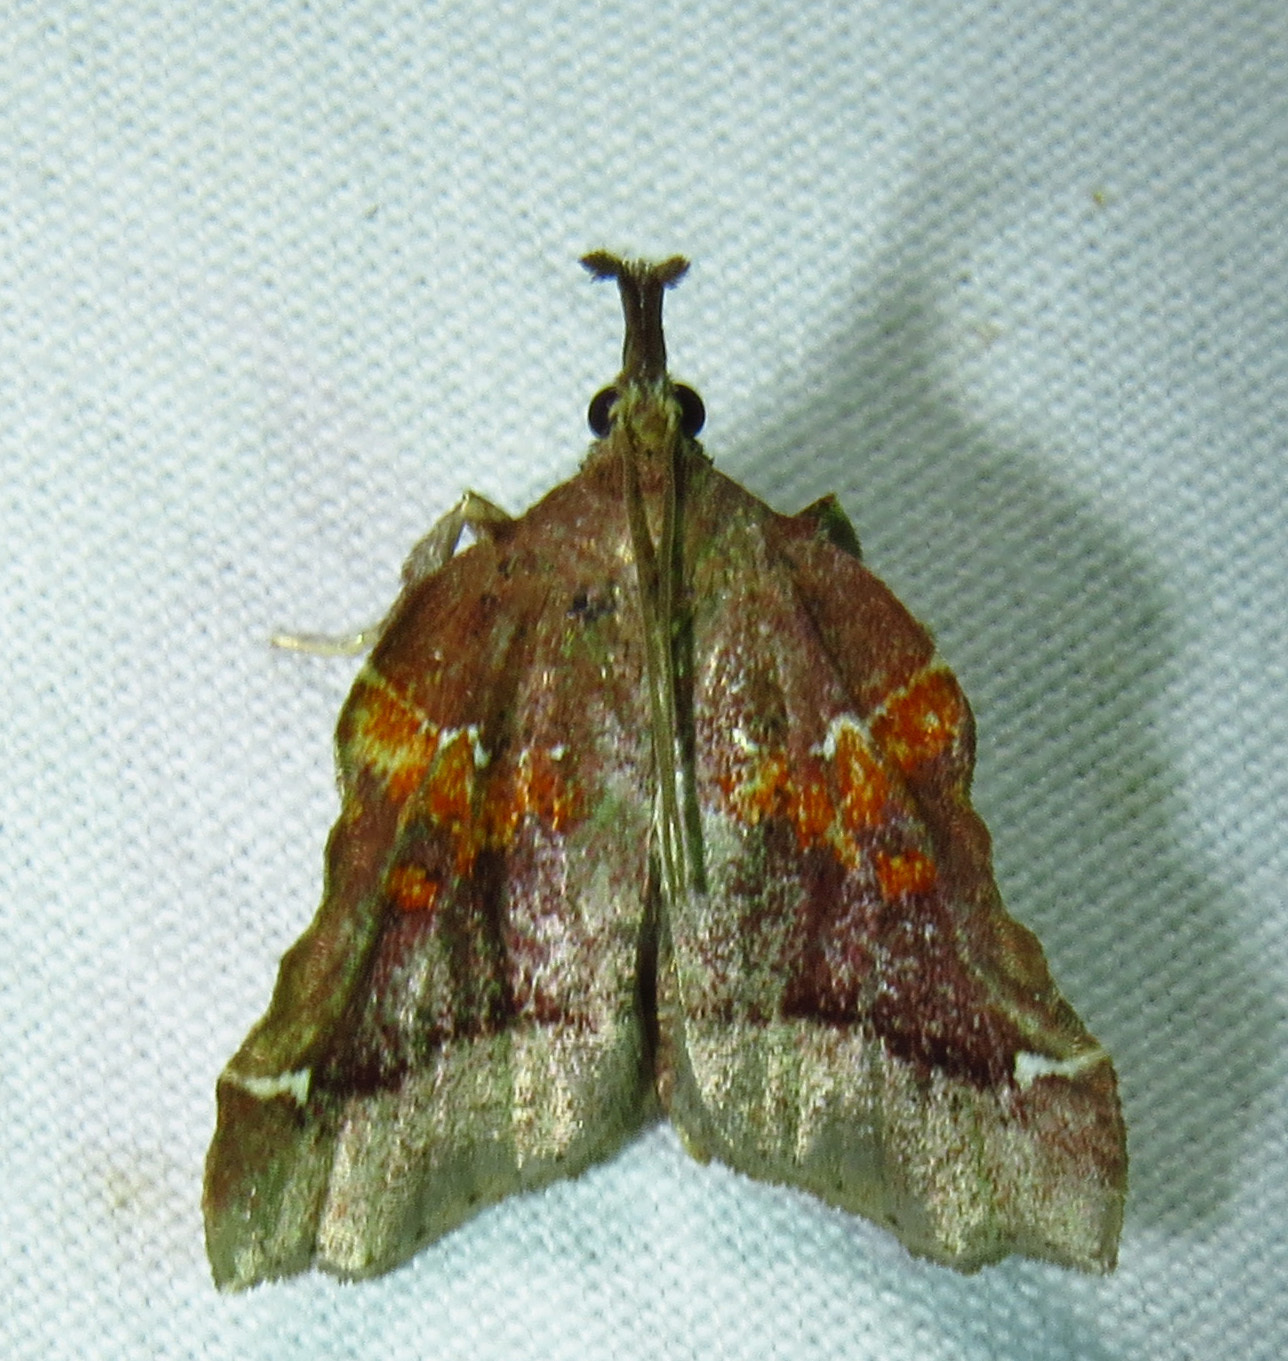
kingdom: Animalia
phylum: Arthropoda
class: Insecta
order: Lepidoptera
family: Pyralidae
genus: Clydonopteron
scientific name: Clydonopteron sacculana
